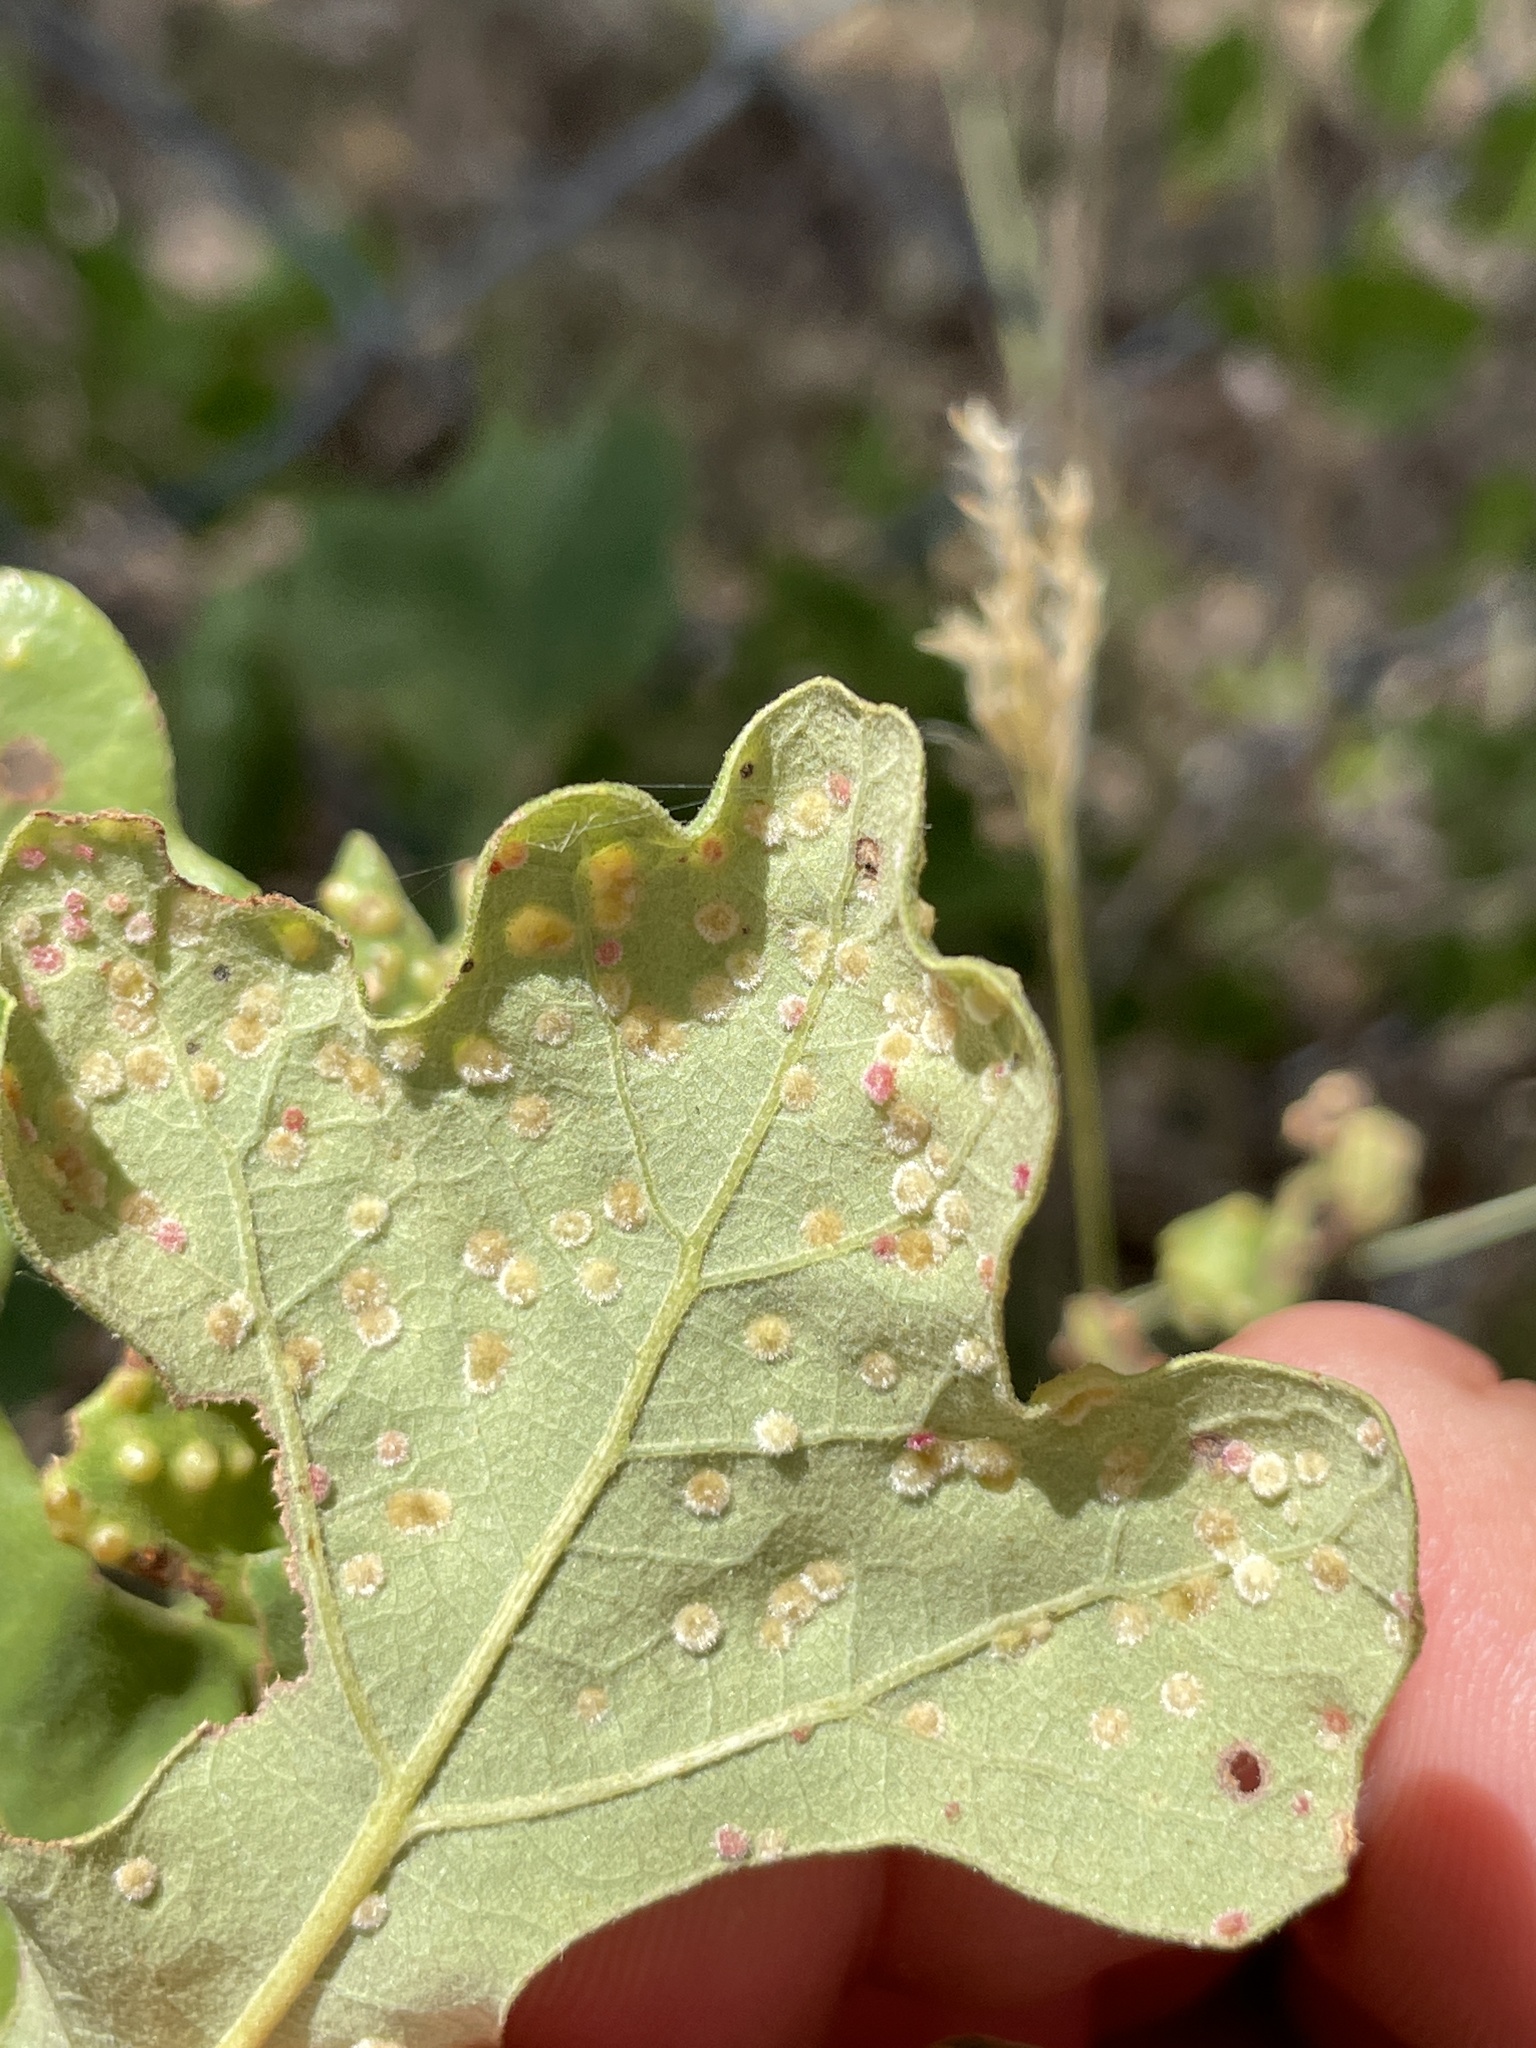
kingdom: Animalia
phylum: Arthropoda
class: Insecta
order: Hymenoptera
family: Cynipidae
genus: Neuroterus
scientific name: Neuroterus quercusverrucarum
